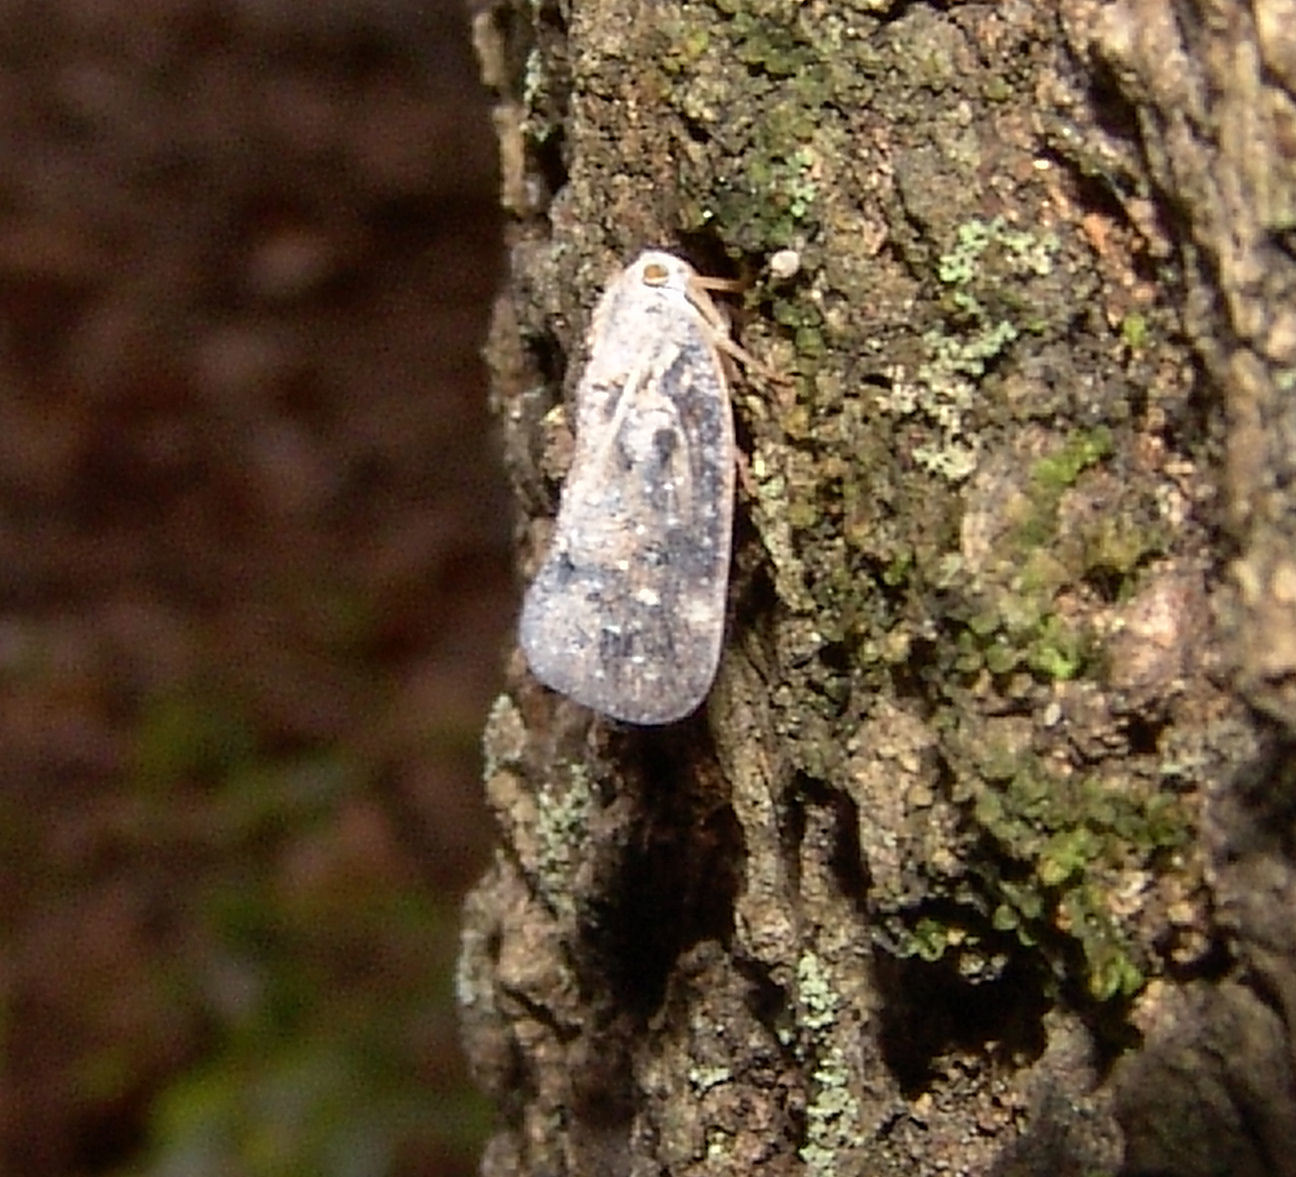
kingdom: Animalia
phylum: Arthropoda
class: Insecta
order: Hemiptera
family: Flatidae
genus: Metcalfa
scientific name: Metcalfa pruinosa
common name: Citrus flatid planthopper
